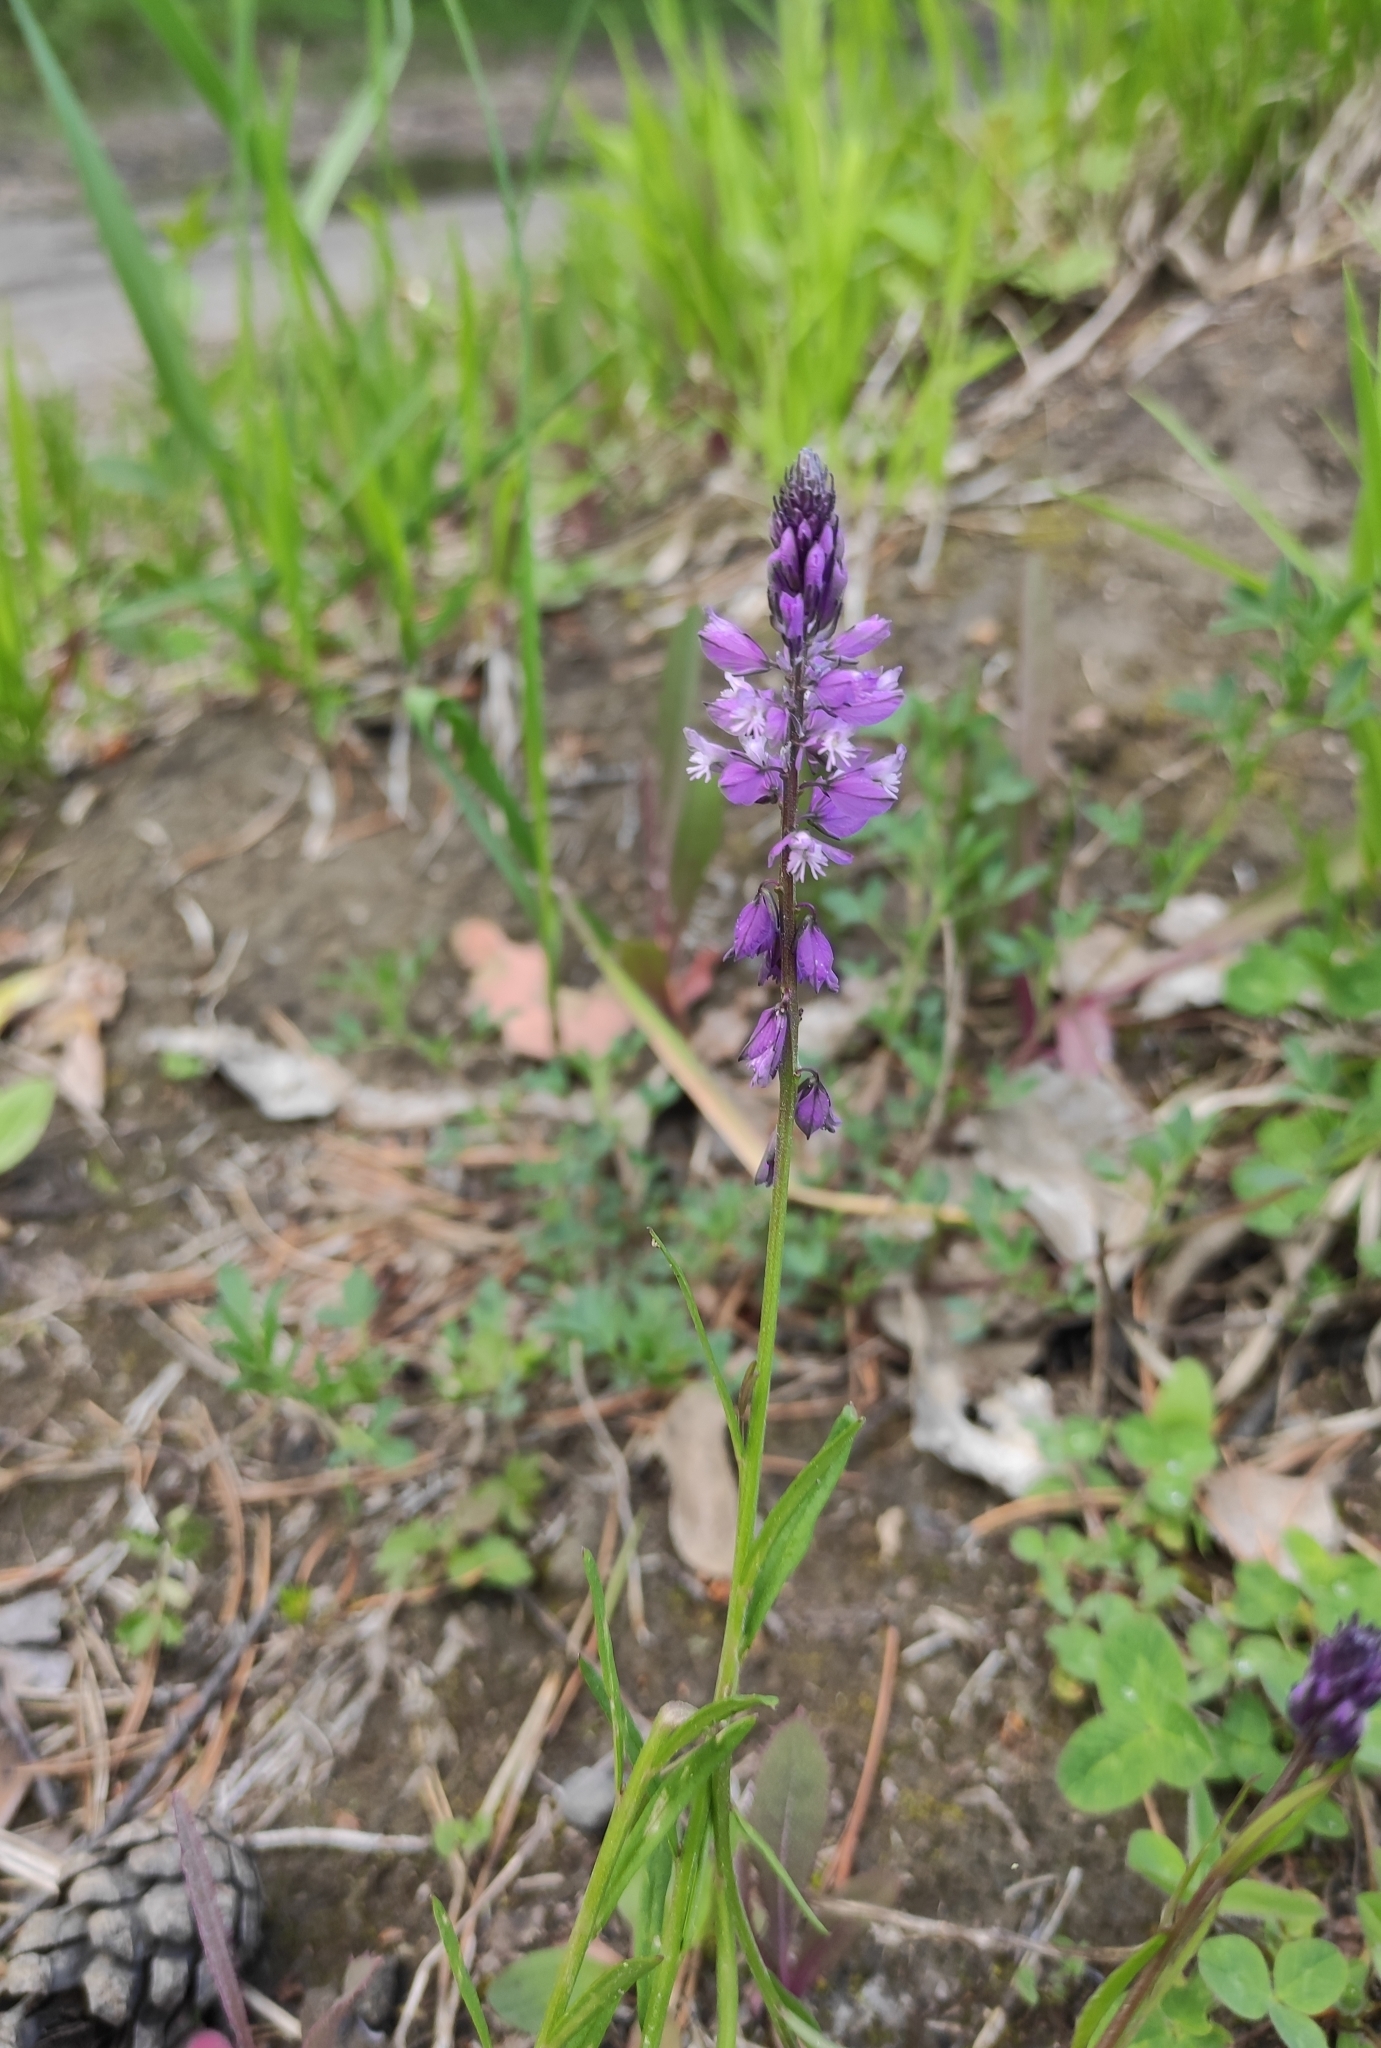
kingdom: Plantae
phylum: Tracheophyta
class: Magnoliopsida
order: Fabales
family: Polygalaceae
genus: Polygala
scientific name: Polygala comosa
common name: Tufted milkwort
